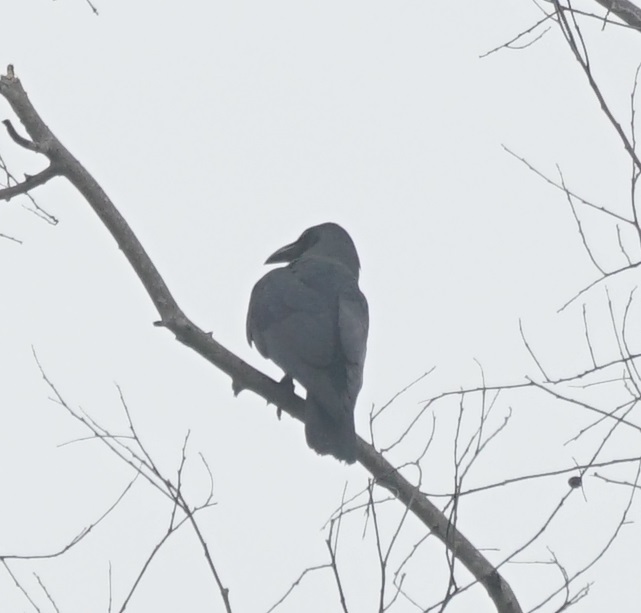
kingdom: Animalia
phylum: Chordata
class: Aves
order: Passeriformes
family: Corvidae
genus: Corvus
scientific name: Corvus splendens
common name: House crow
